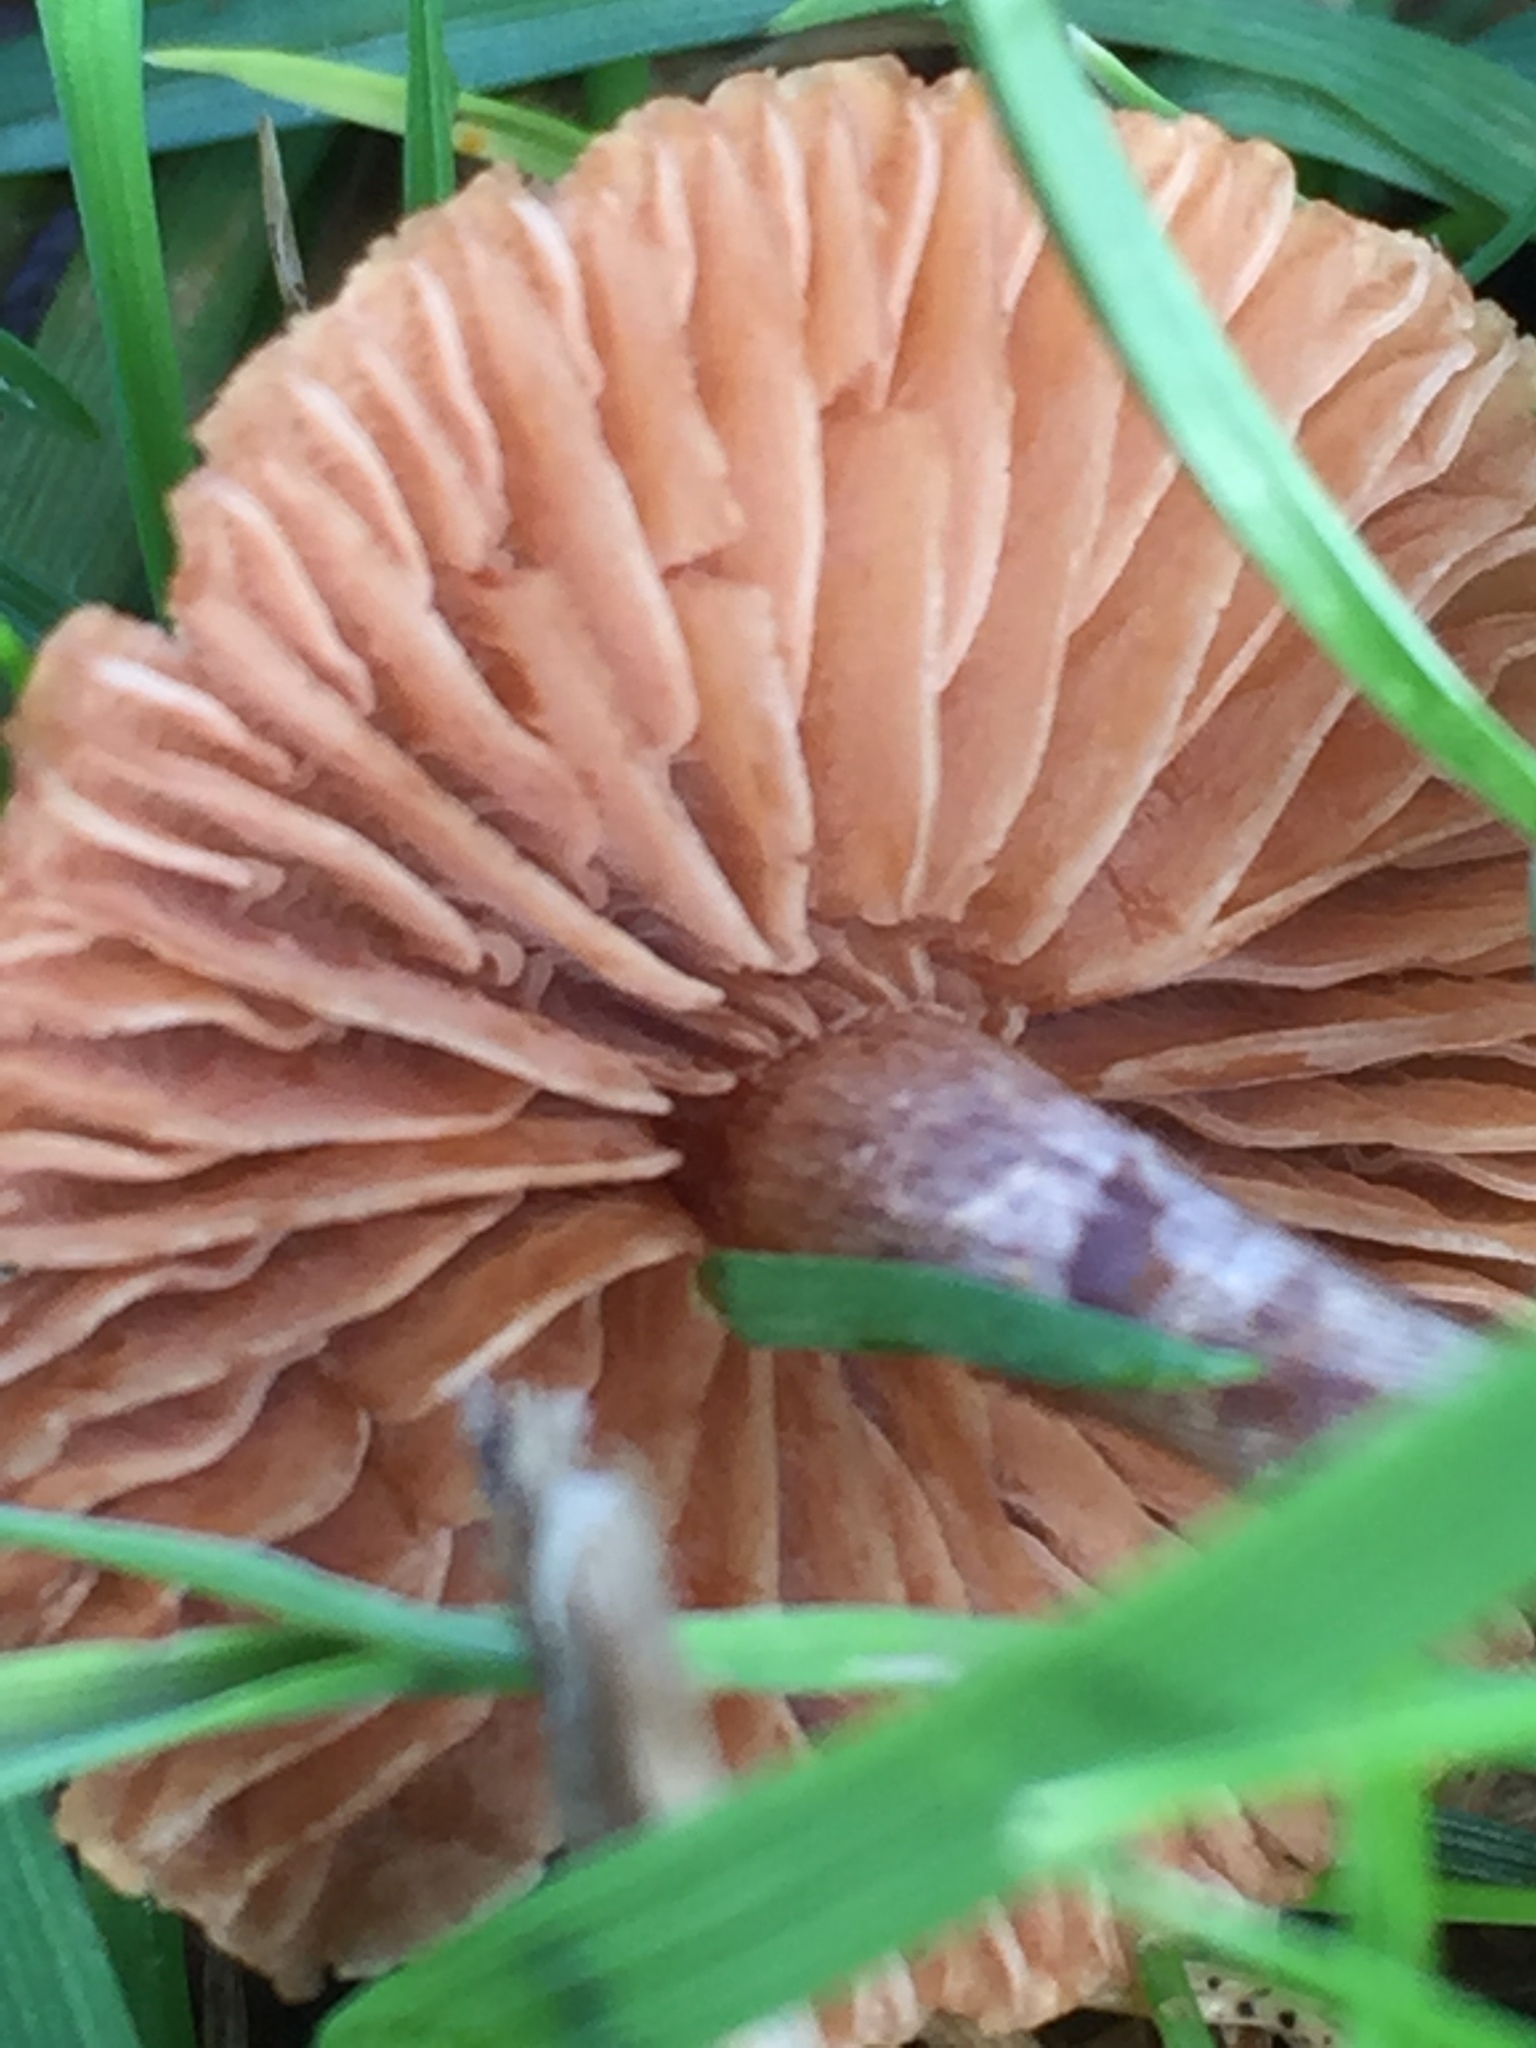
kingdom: Fungi
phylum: Basidiomycota
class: Agaricomycetes
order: Agaricales
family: Bolbitiaceae
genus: Panaeolina
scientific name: Panaeolina foenisecii
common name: Brown hay cap
